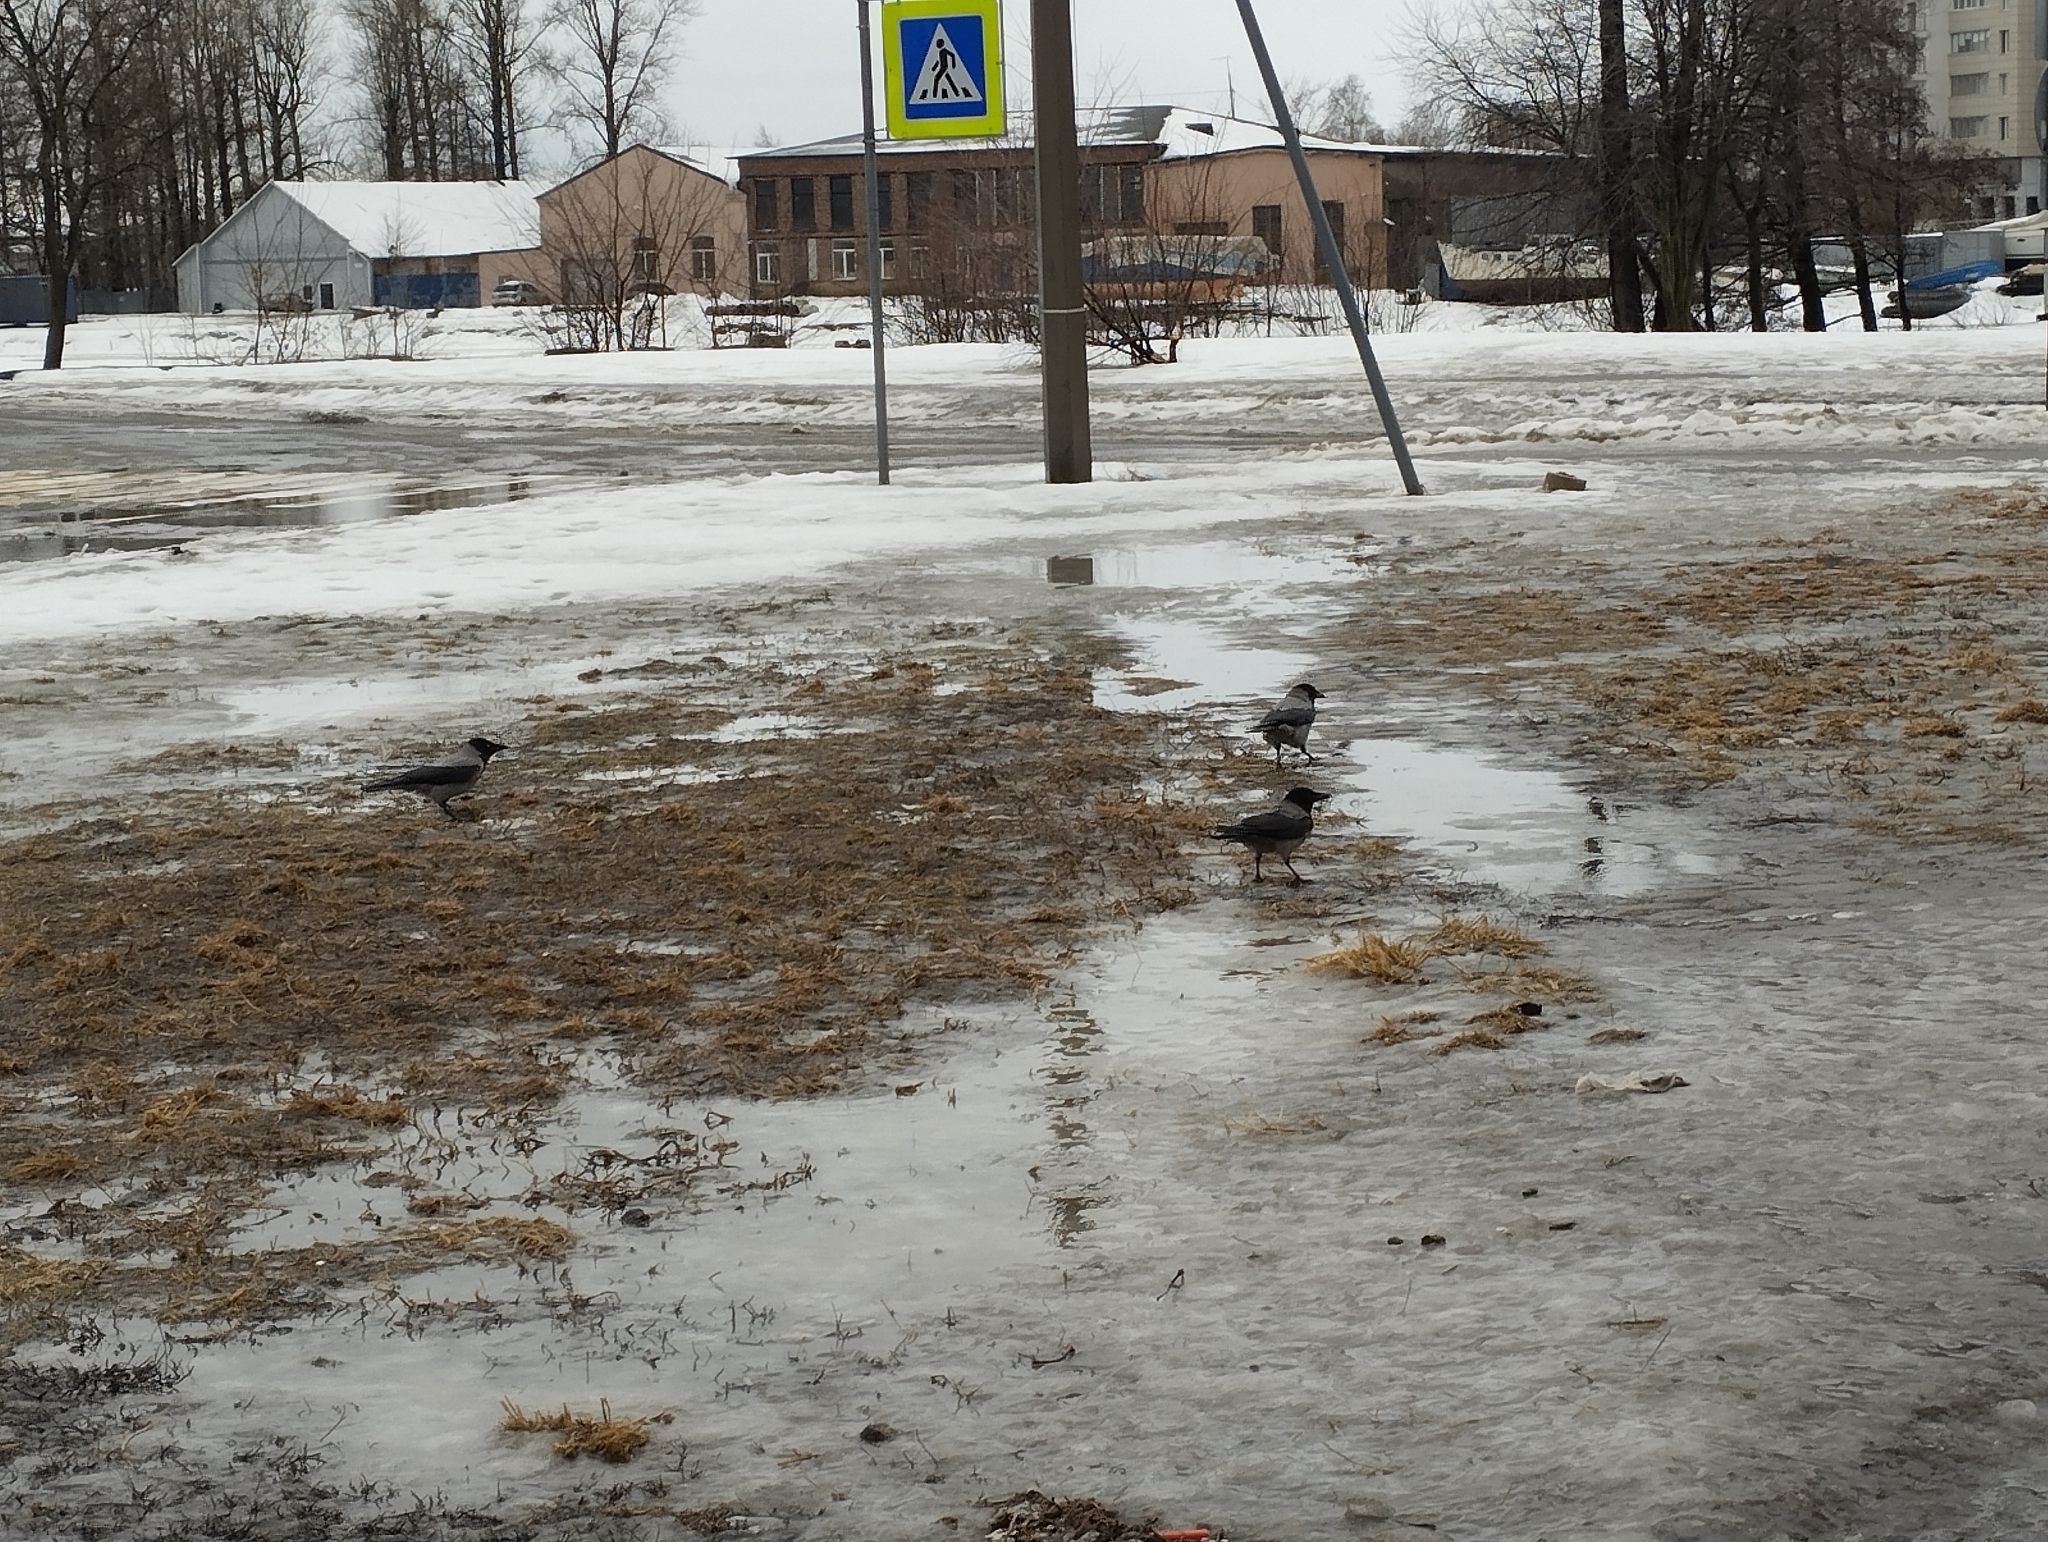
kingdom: Animalia
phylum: Chordata
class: Aves
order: Passeriformes
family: Corvidae
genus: Corvus
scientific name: Corvus cornix
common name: Hooded crow
